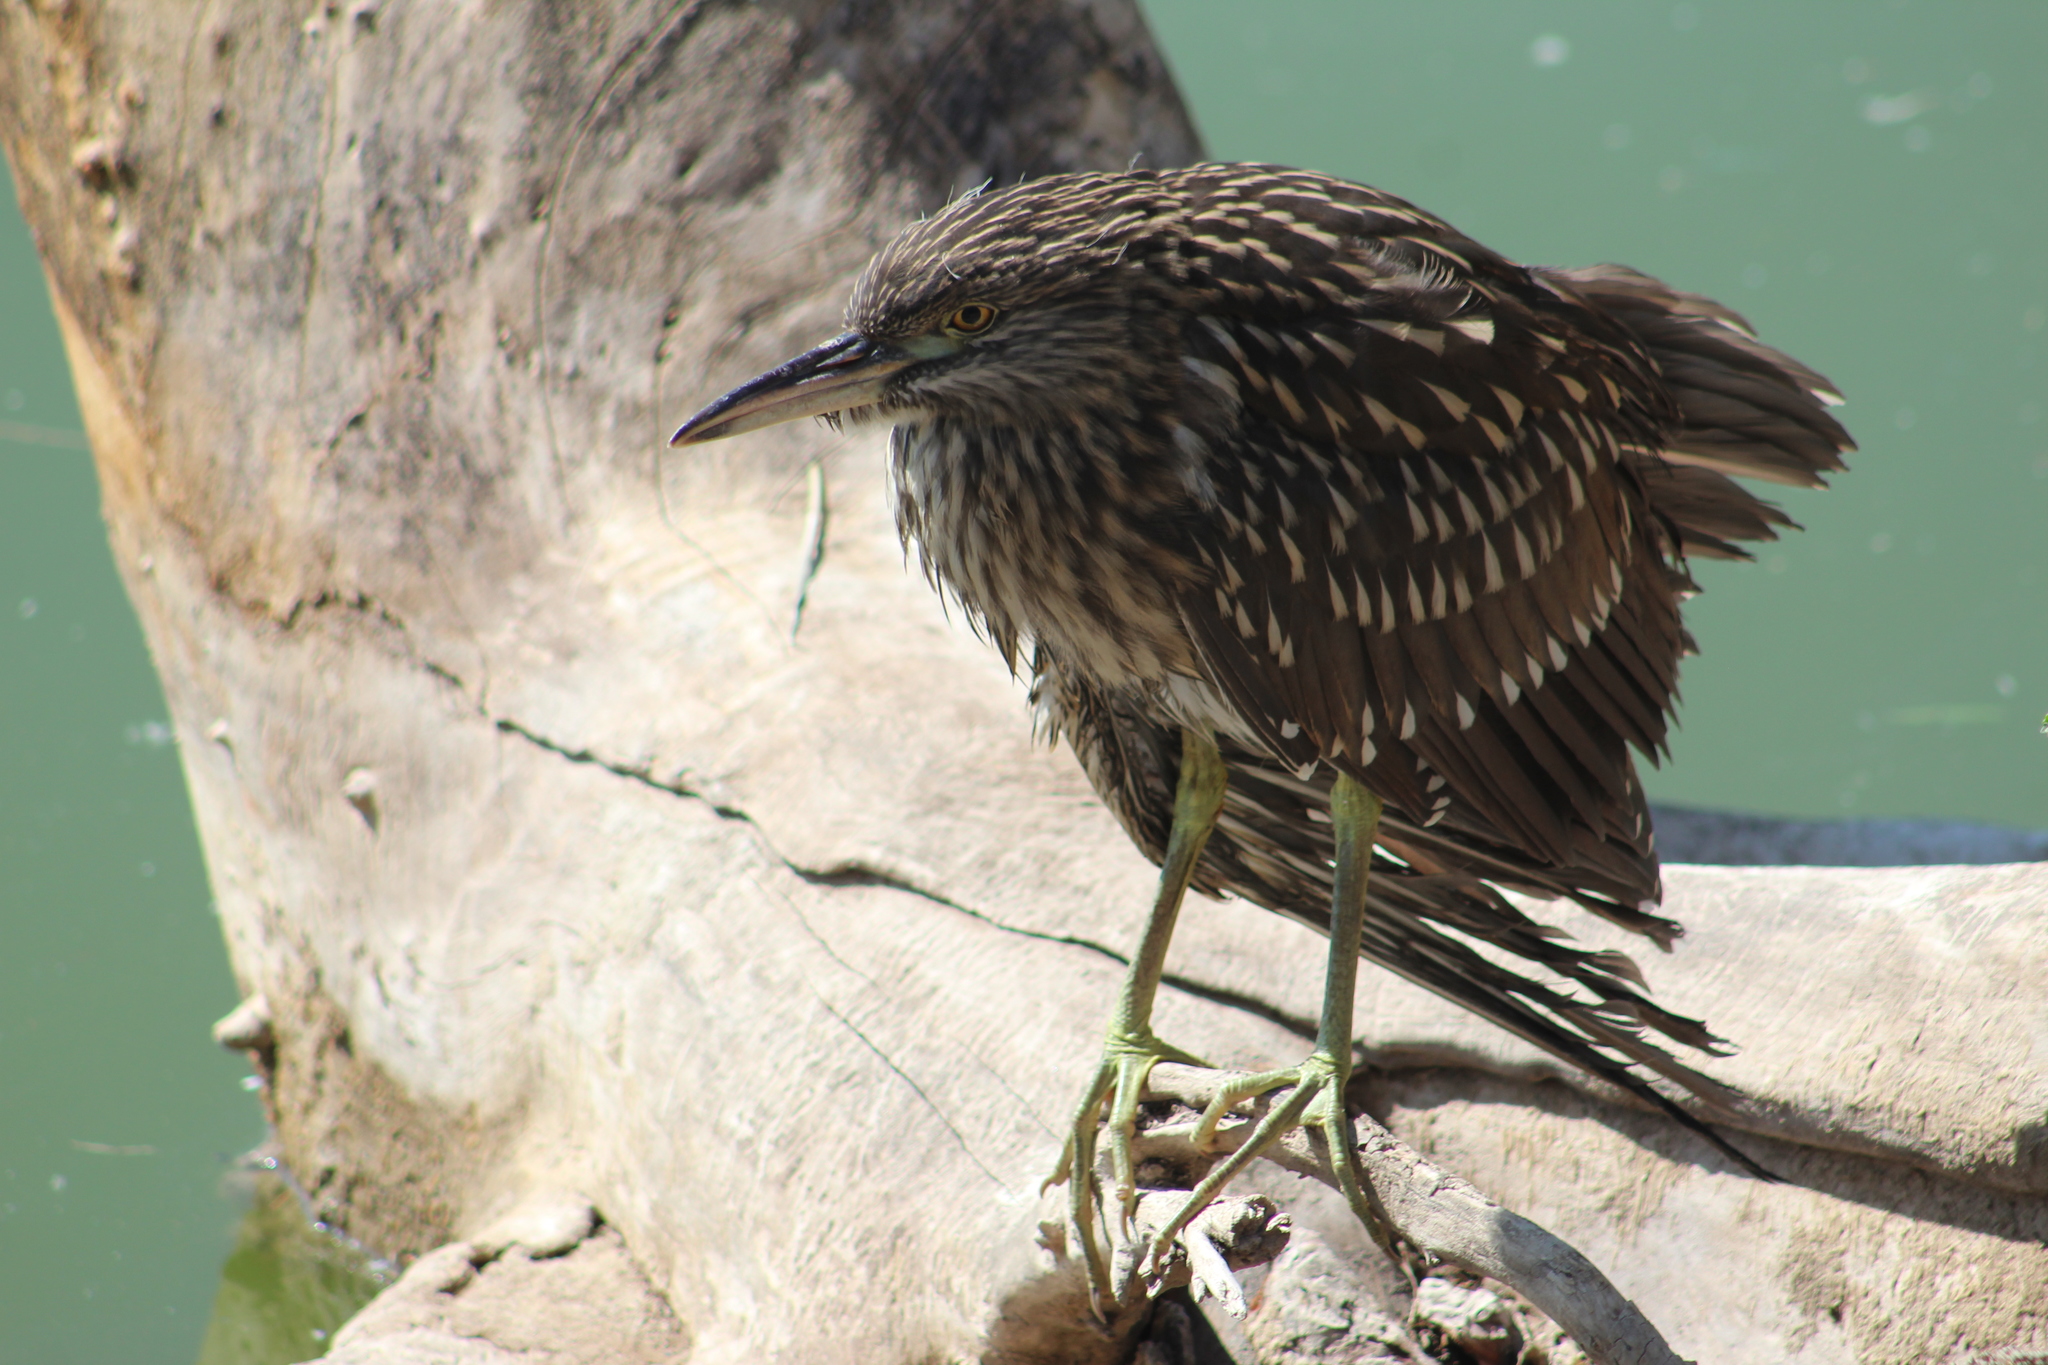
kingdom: Animalia
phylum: Chordata
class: Aves
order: Pelecaniformes
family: Ardeidae
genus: Nycticorax
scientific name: Nycticorax nycticorax
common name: Black-crowned night heron
